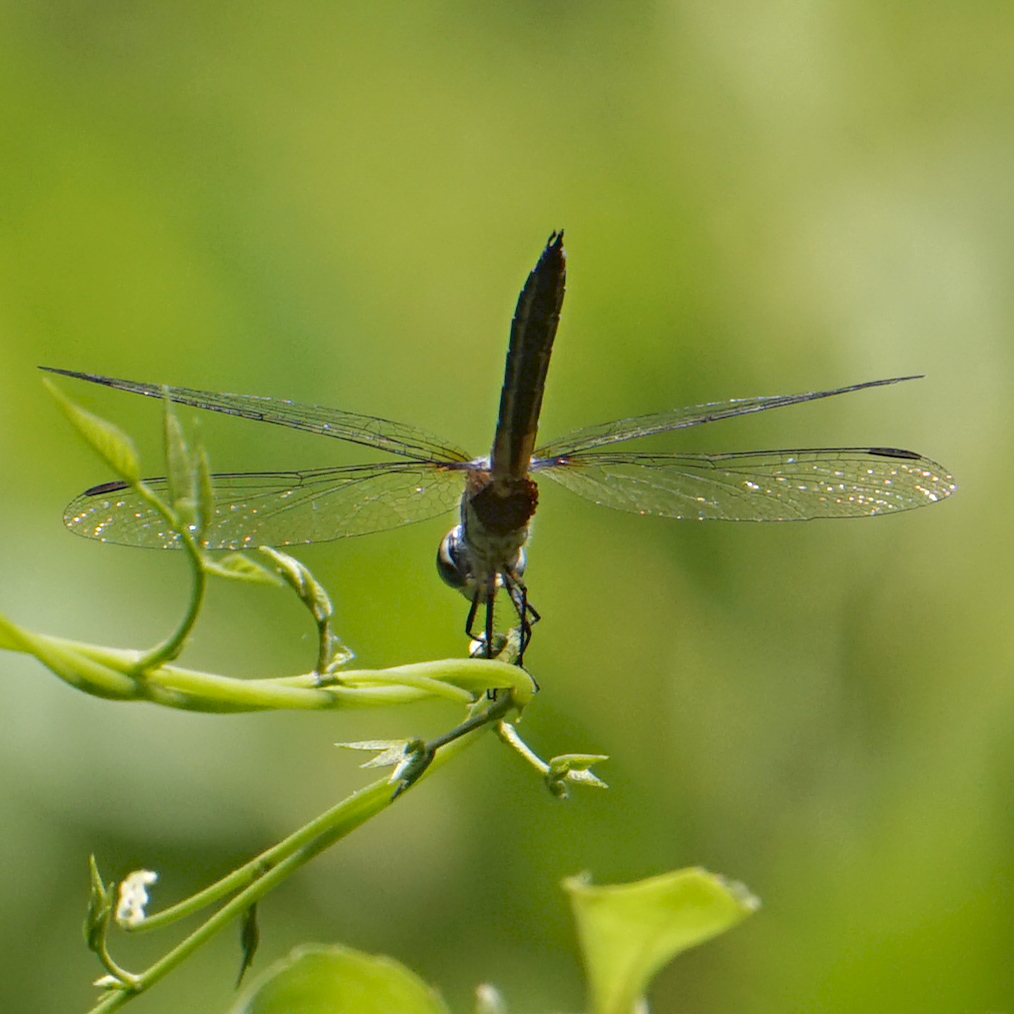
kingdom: Animalia
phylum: Arthropoda
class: Insecta
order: Odonata
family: Libellulidae
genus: Pachydiplax
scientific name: Pachydiplax longipennis
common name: Blue dasher
